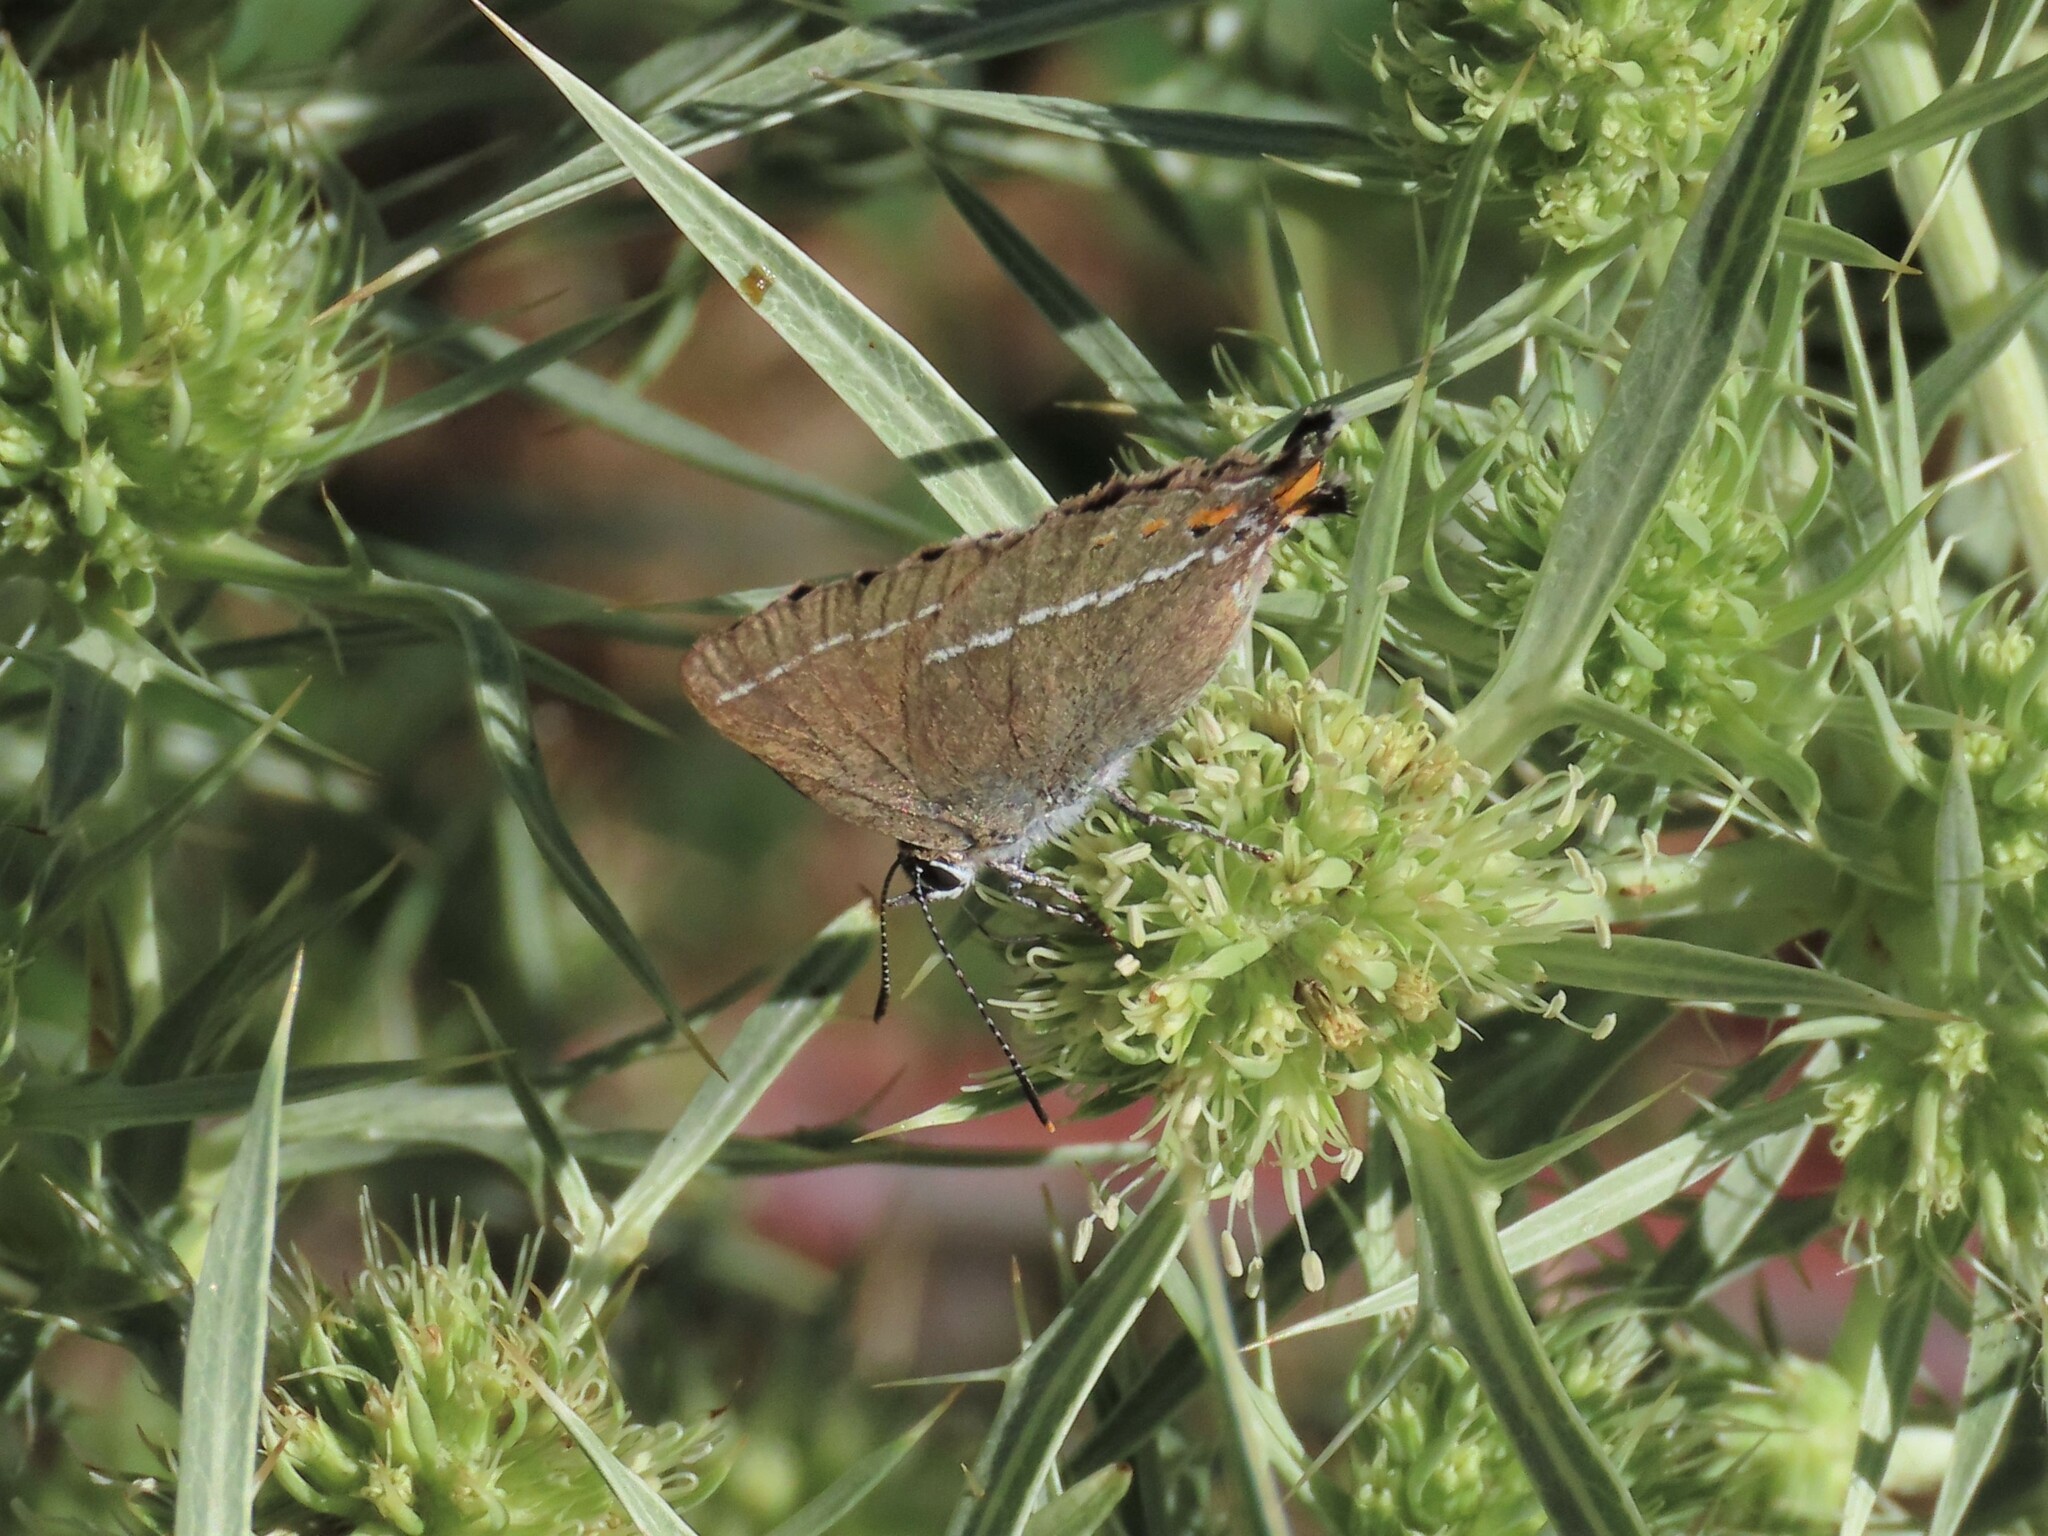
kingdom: Animalia
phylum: Arthropoda
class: Insecta
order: Lepidoptera
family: Lycaenidae
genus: Tuttiola
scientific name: Tuttiola spini
